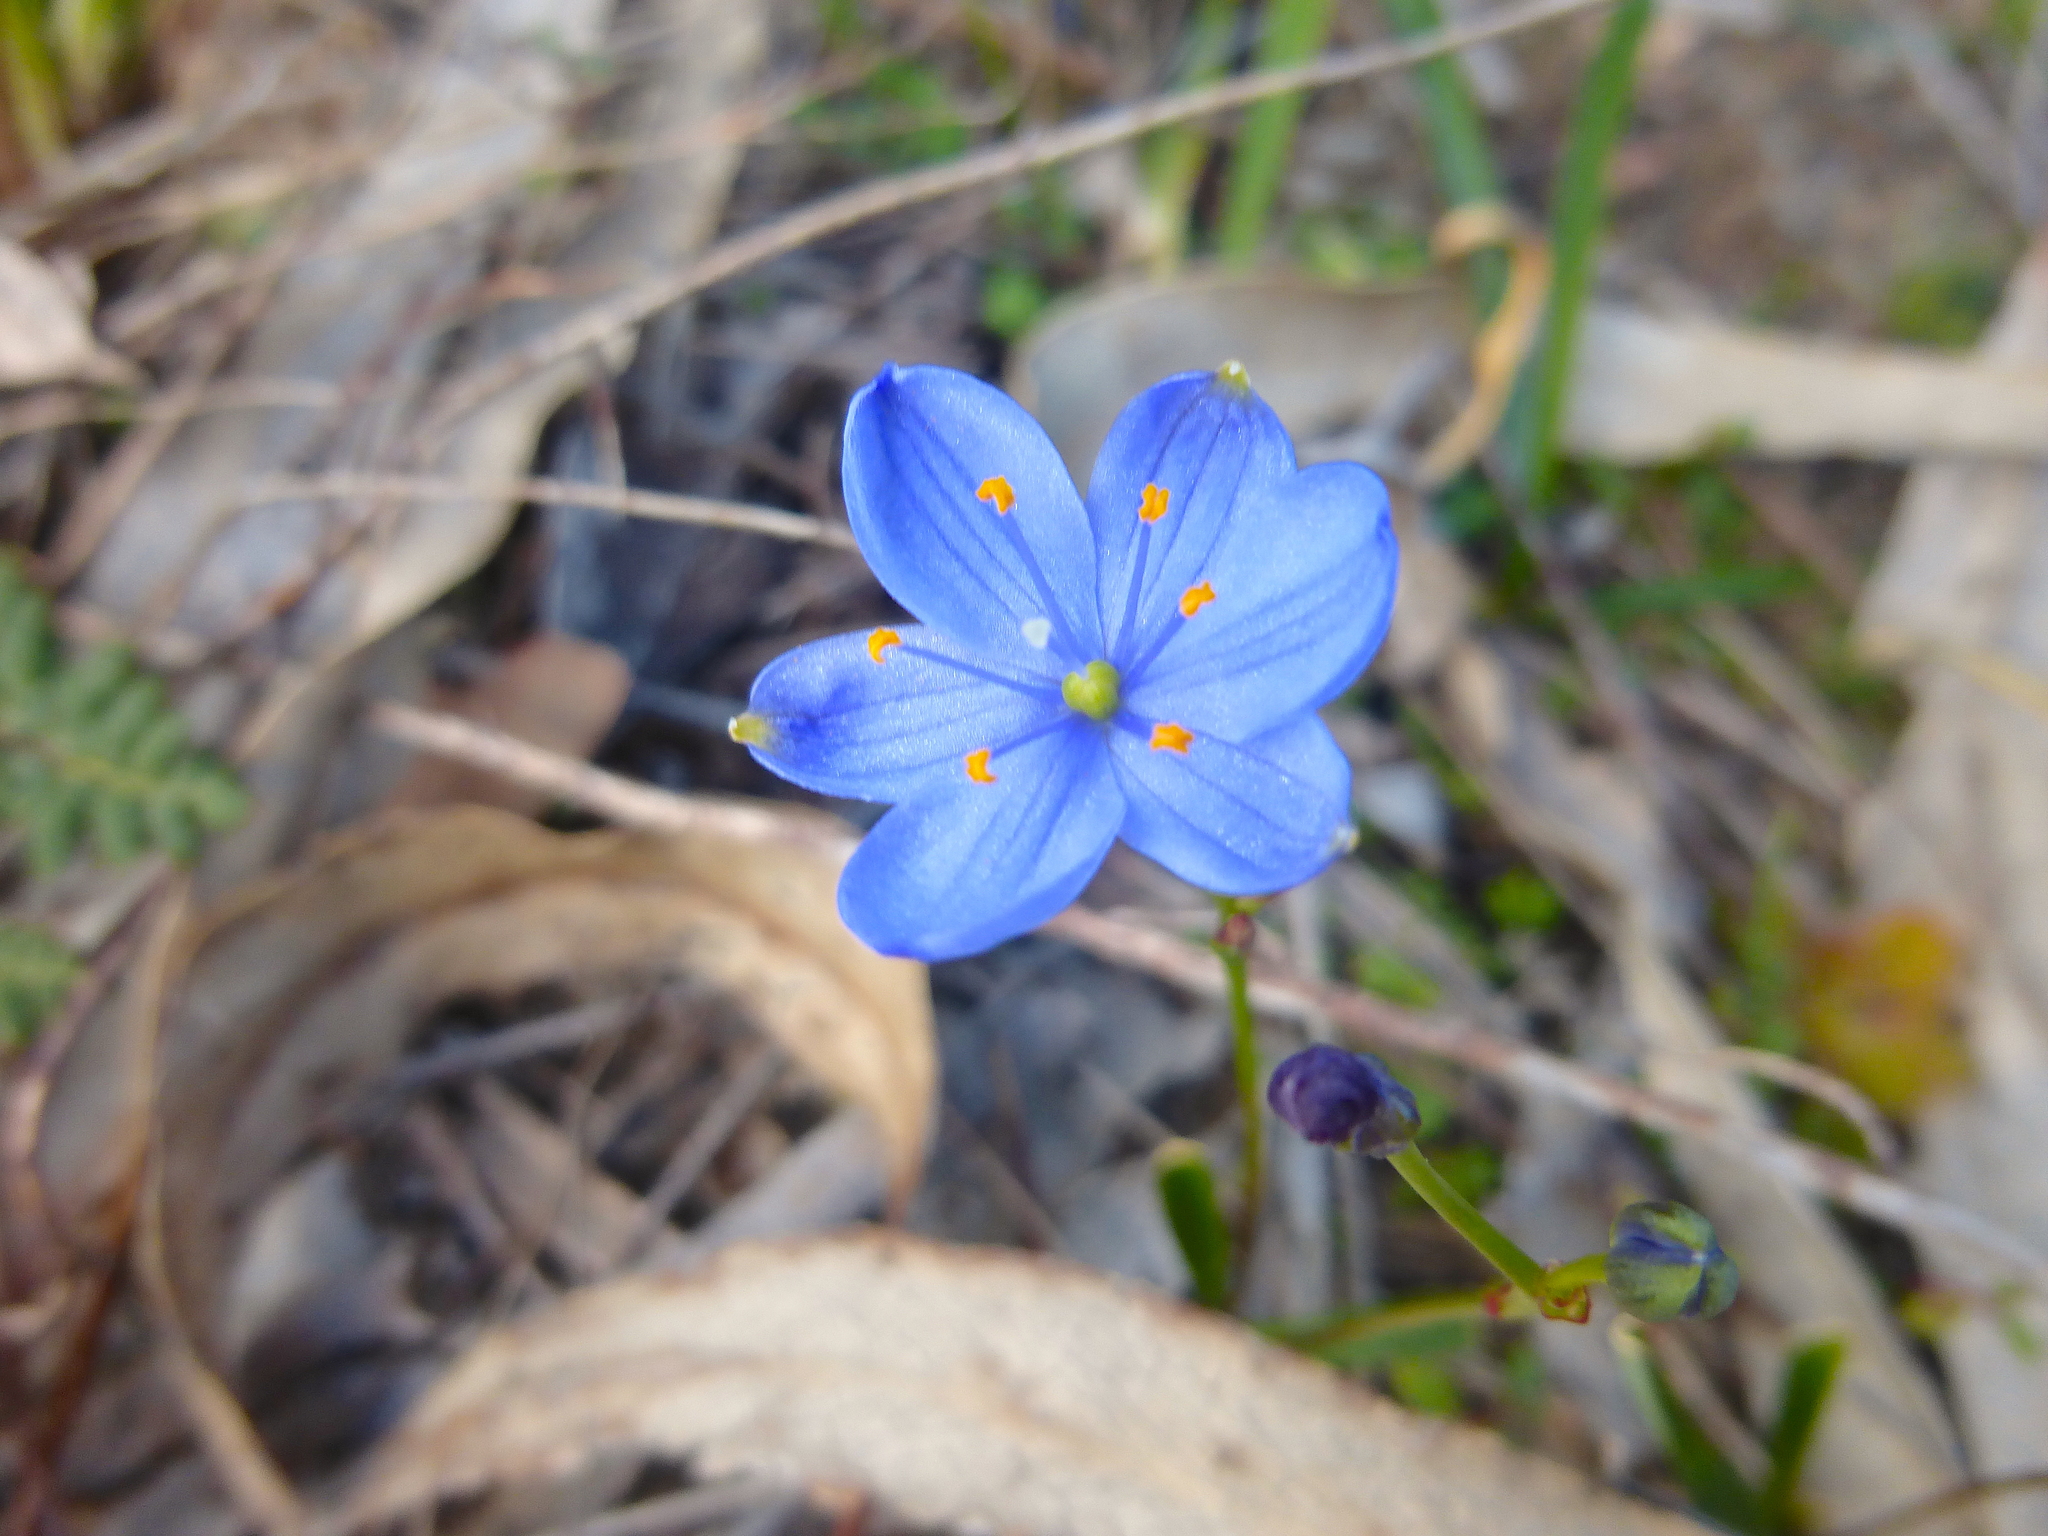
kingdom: Plantae
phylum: Tracheophyta
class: Liliopsida
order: Asparagales
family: Asphodelaceae
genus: Chamaescilla
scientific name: Chamaescilla corymbosa
